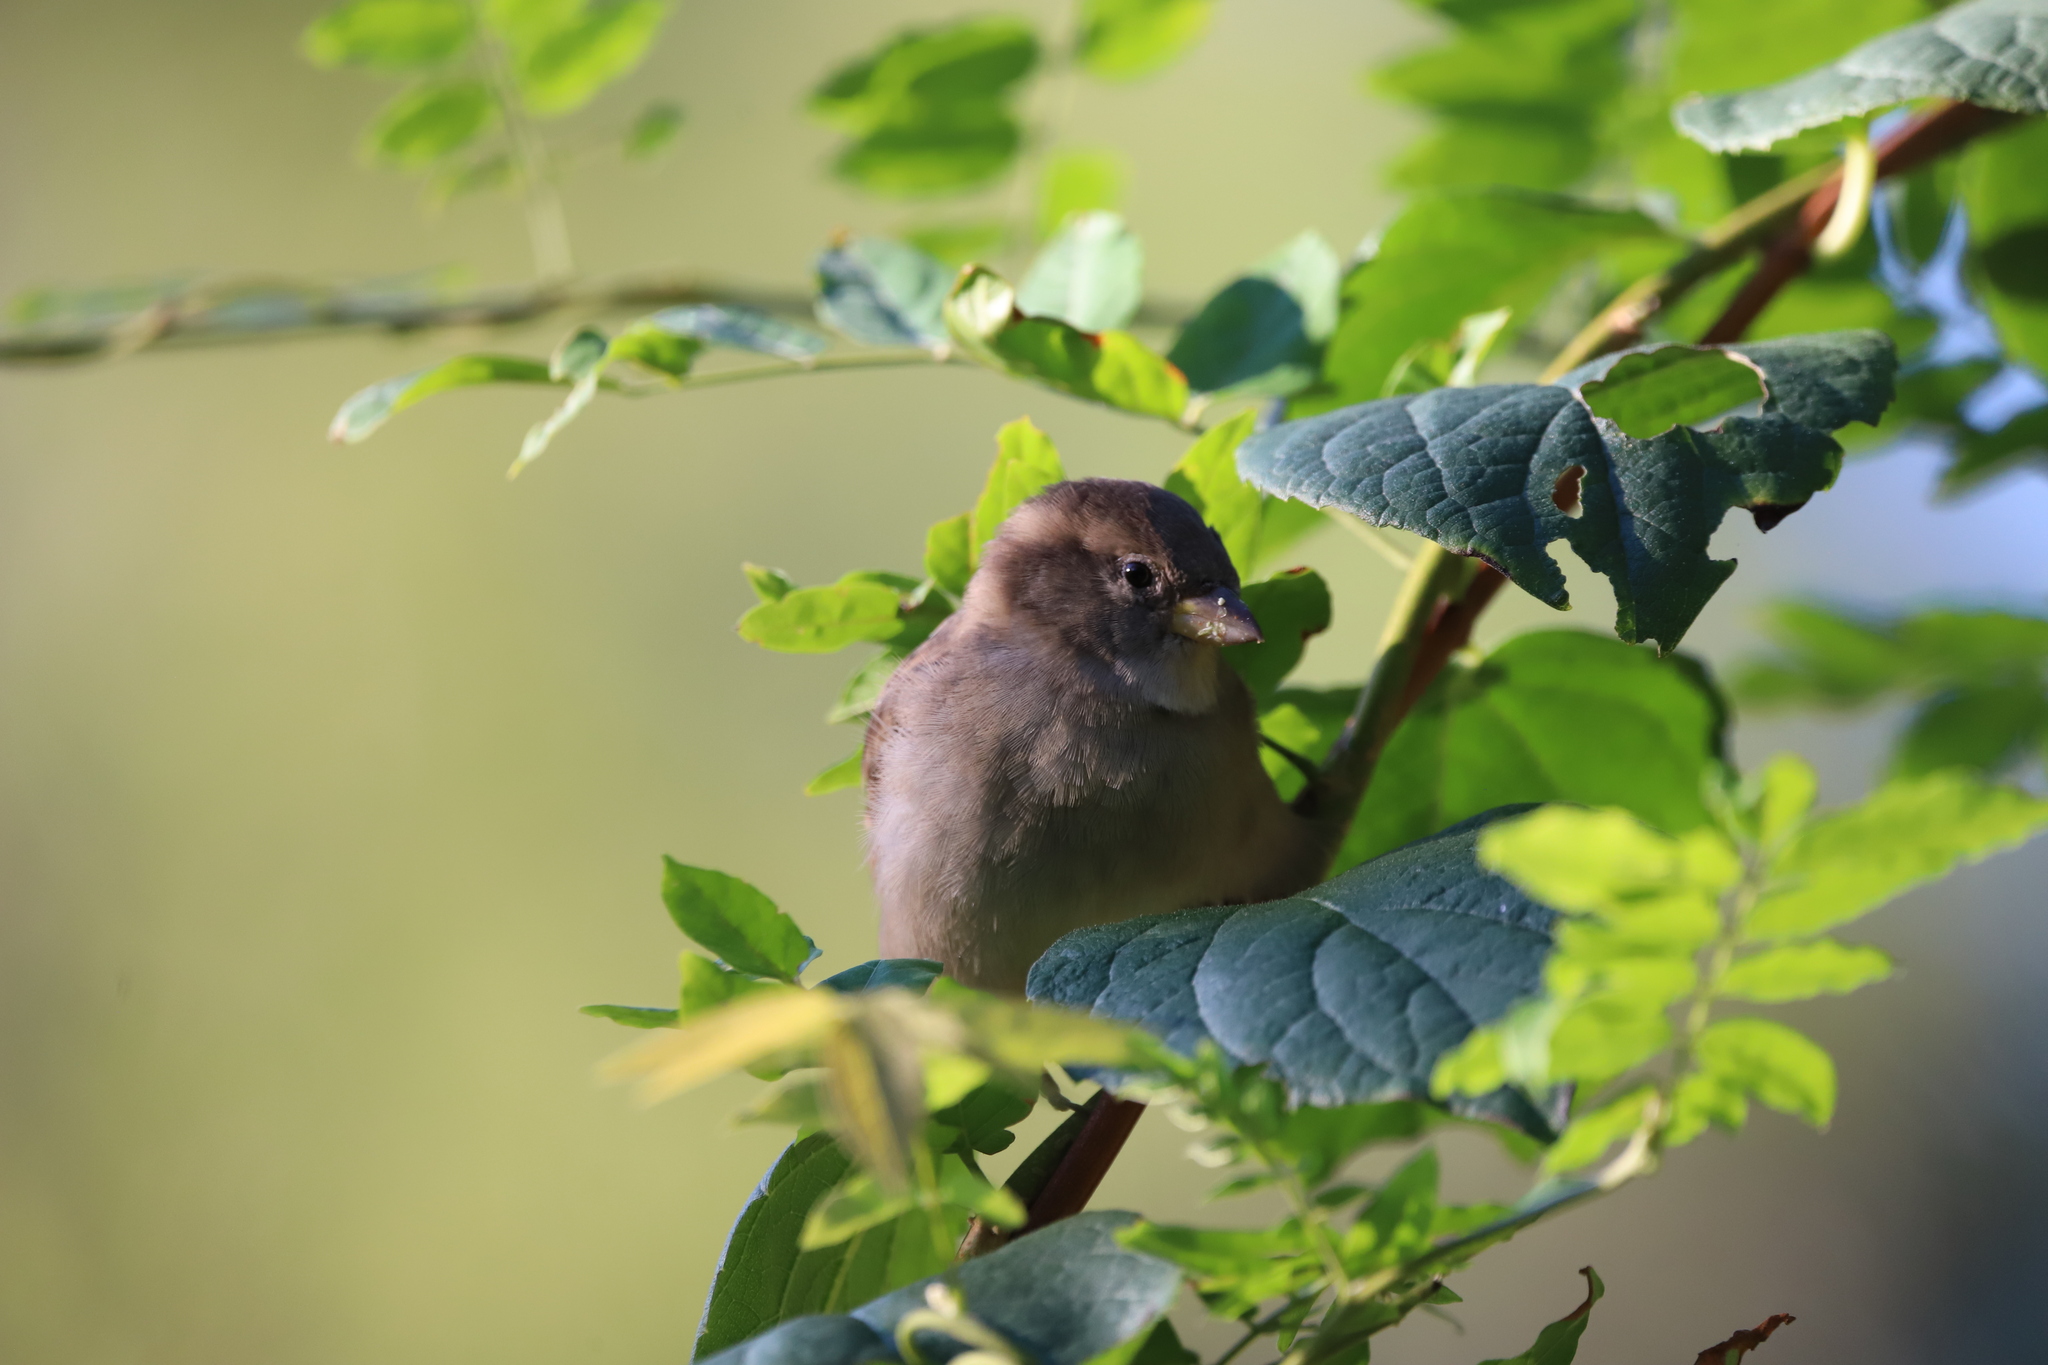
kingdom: Animalia
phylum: Chordata
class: Aves
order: Passeriformes
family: Passeridae
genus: Passer
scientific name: Passer domesticus
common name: House sparrow
